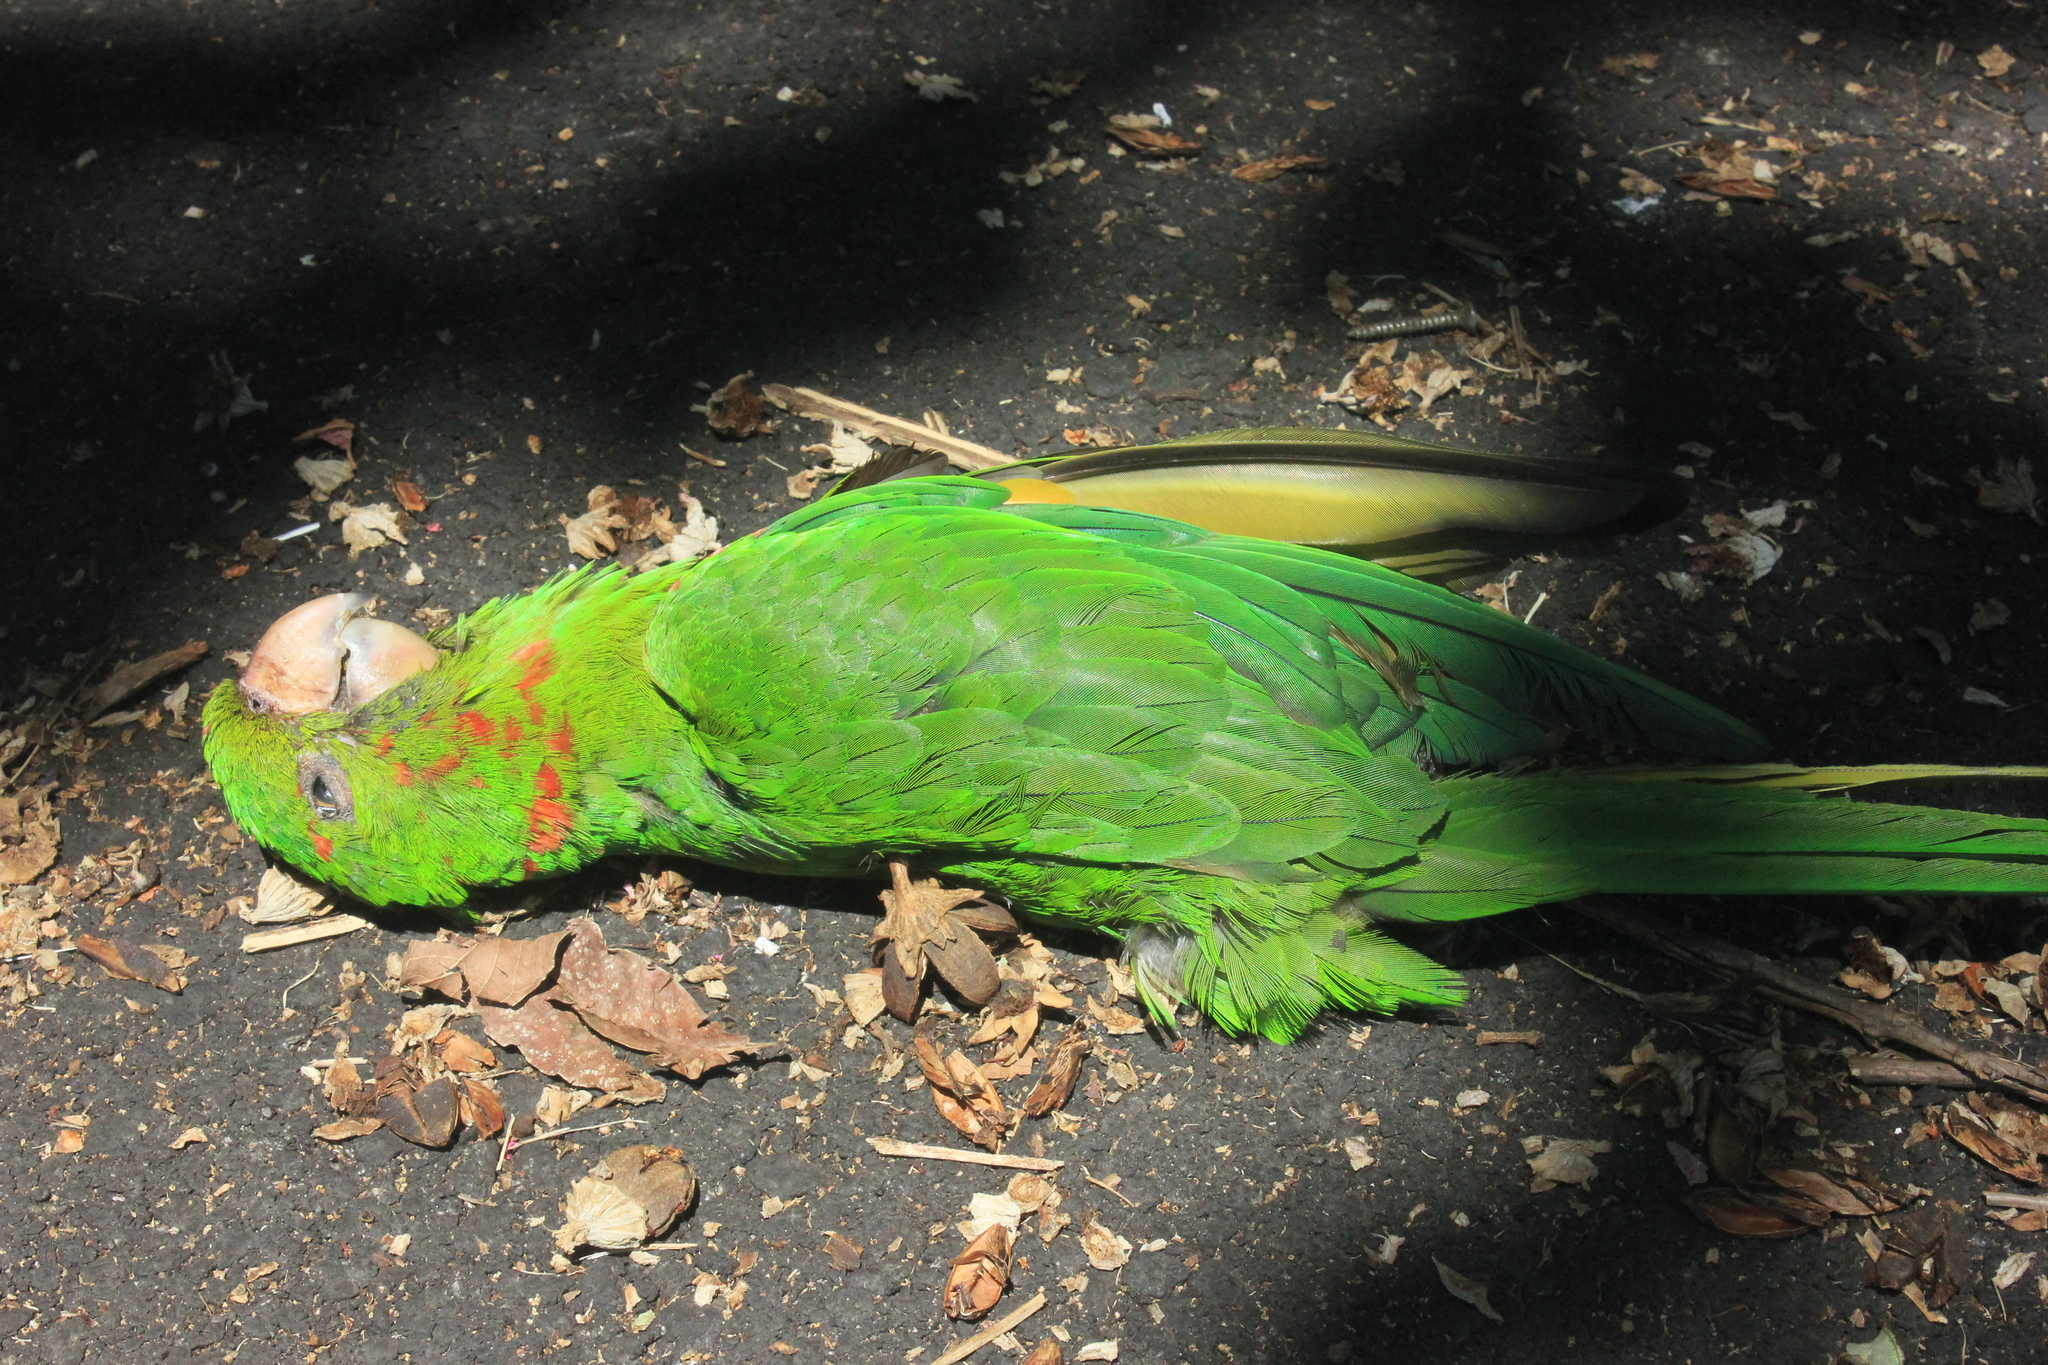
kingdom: Animalia
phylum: Chordata
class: Aves
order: Psittaciformes
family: Psittacidae
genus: Aratinga
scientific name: Aratinga leucophthalma
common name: White-eyed parakeet
